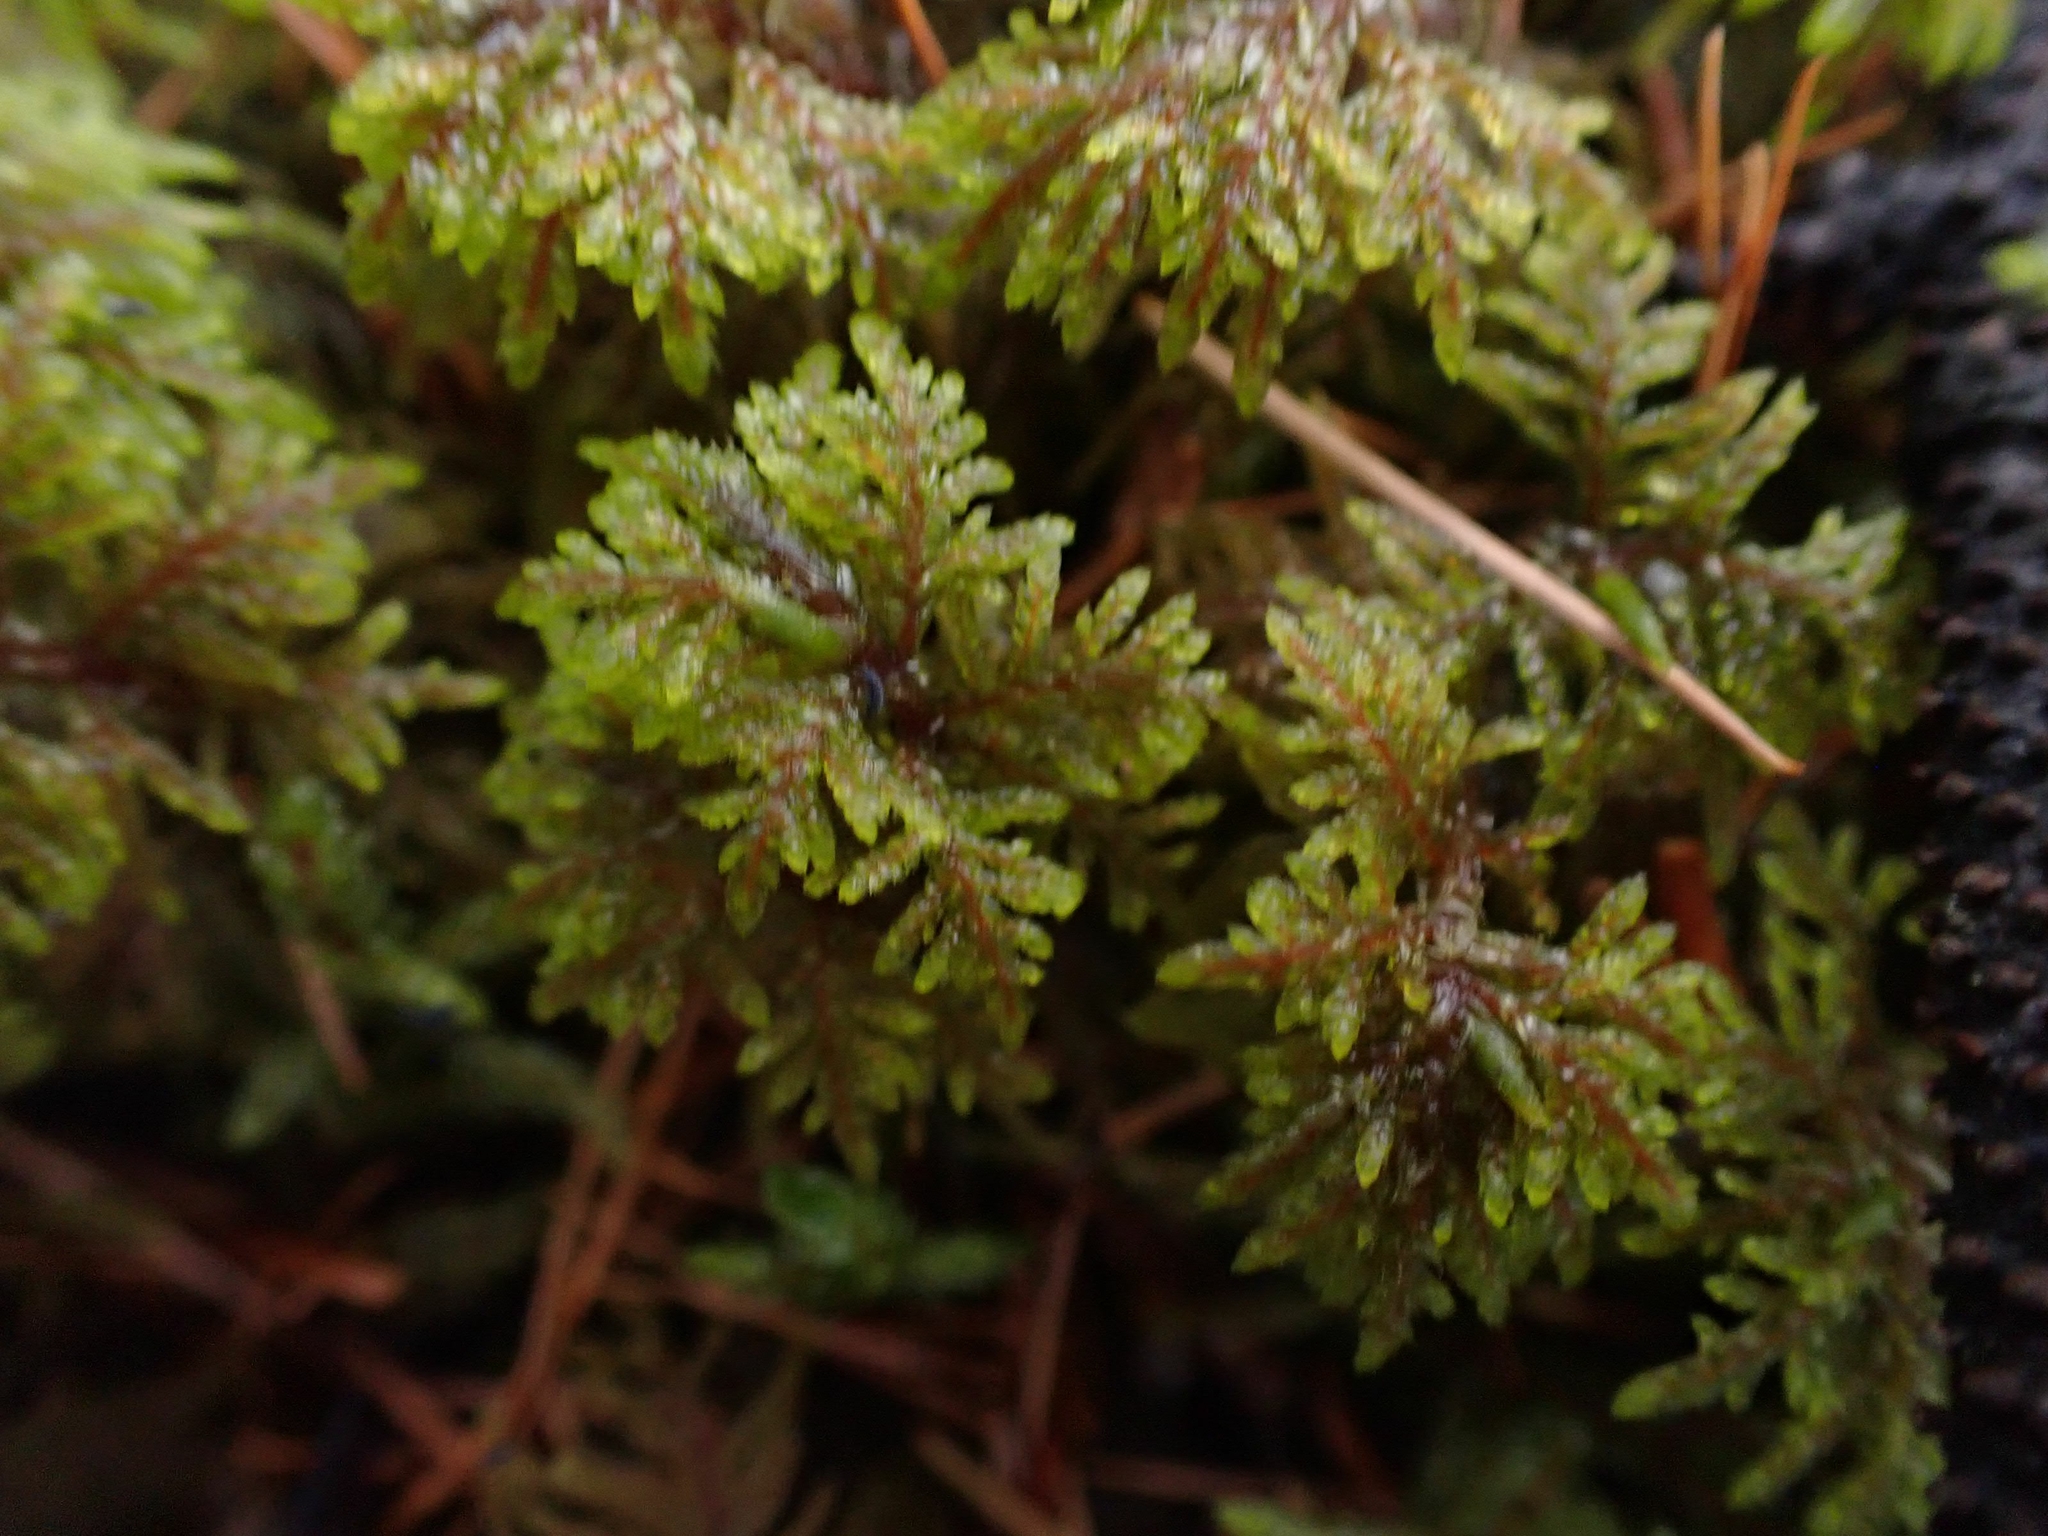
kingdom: Plantae
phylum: Bryophyta
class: Bryopsida
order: Hypnales
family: Hylocomiaceae
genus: Hylocomium
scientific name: Hylocomium splendens
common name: Stairstep moss
